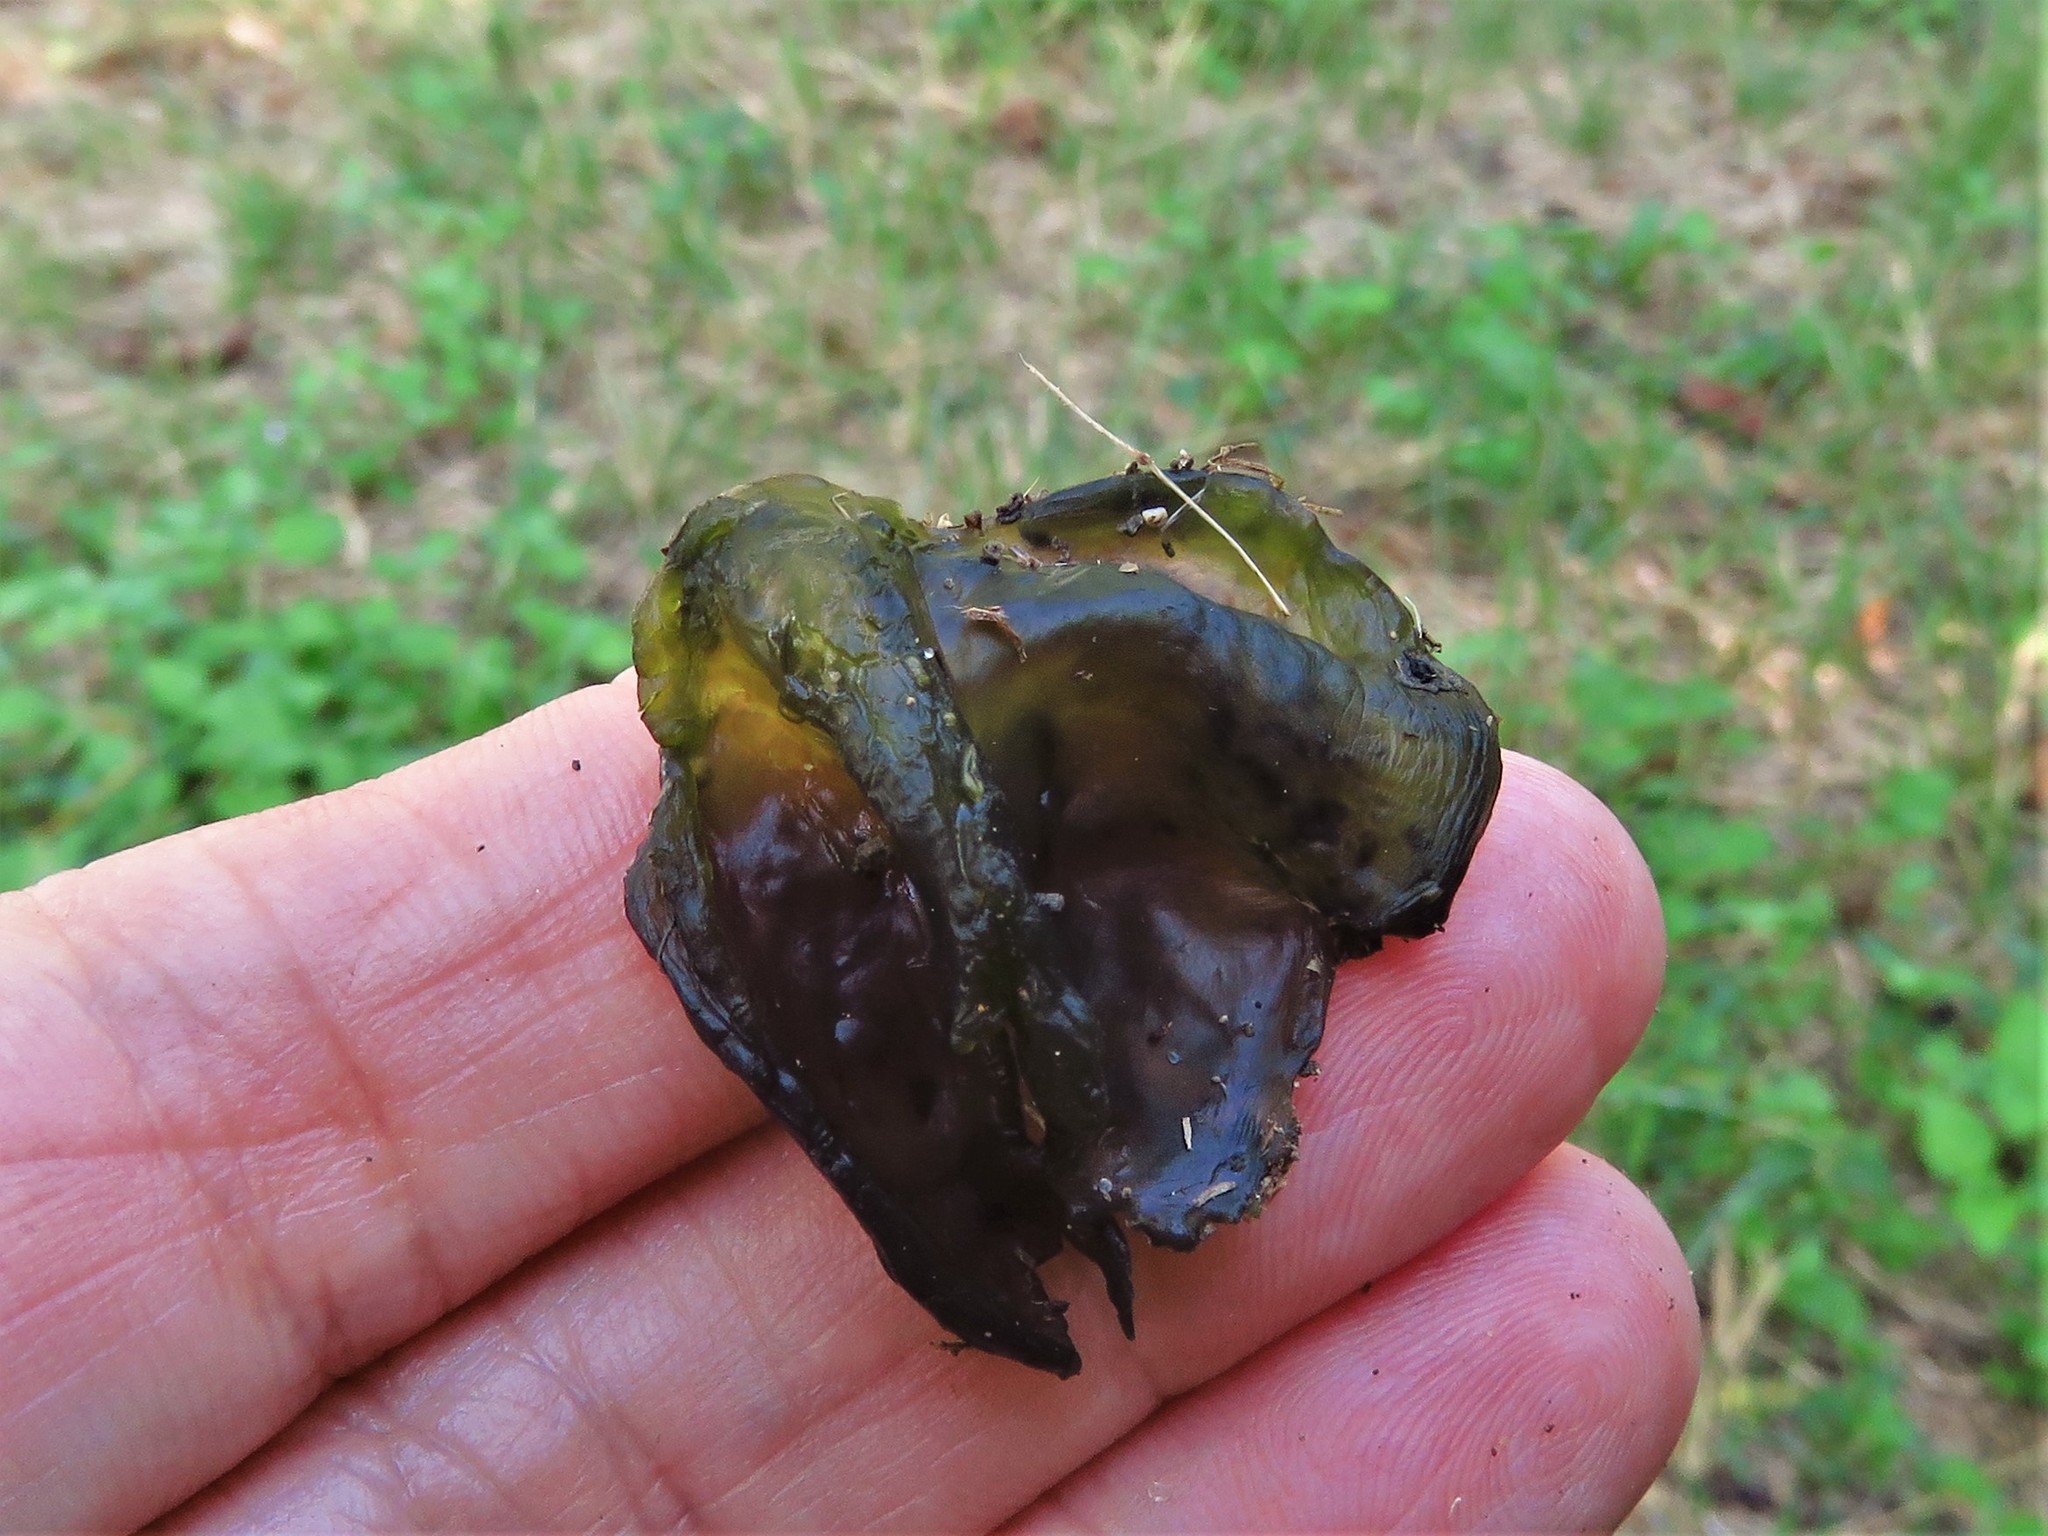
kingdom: Bacteria
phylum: Cyanobacteria
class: Cyanobacteriia
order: Cyanobacteriales
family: Nostocaceae
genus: Nostoc
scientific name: Nostoc commune
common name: Star jelly
